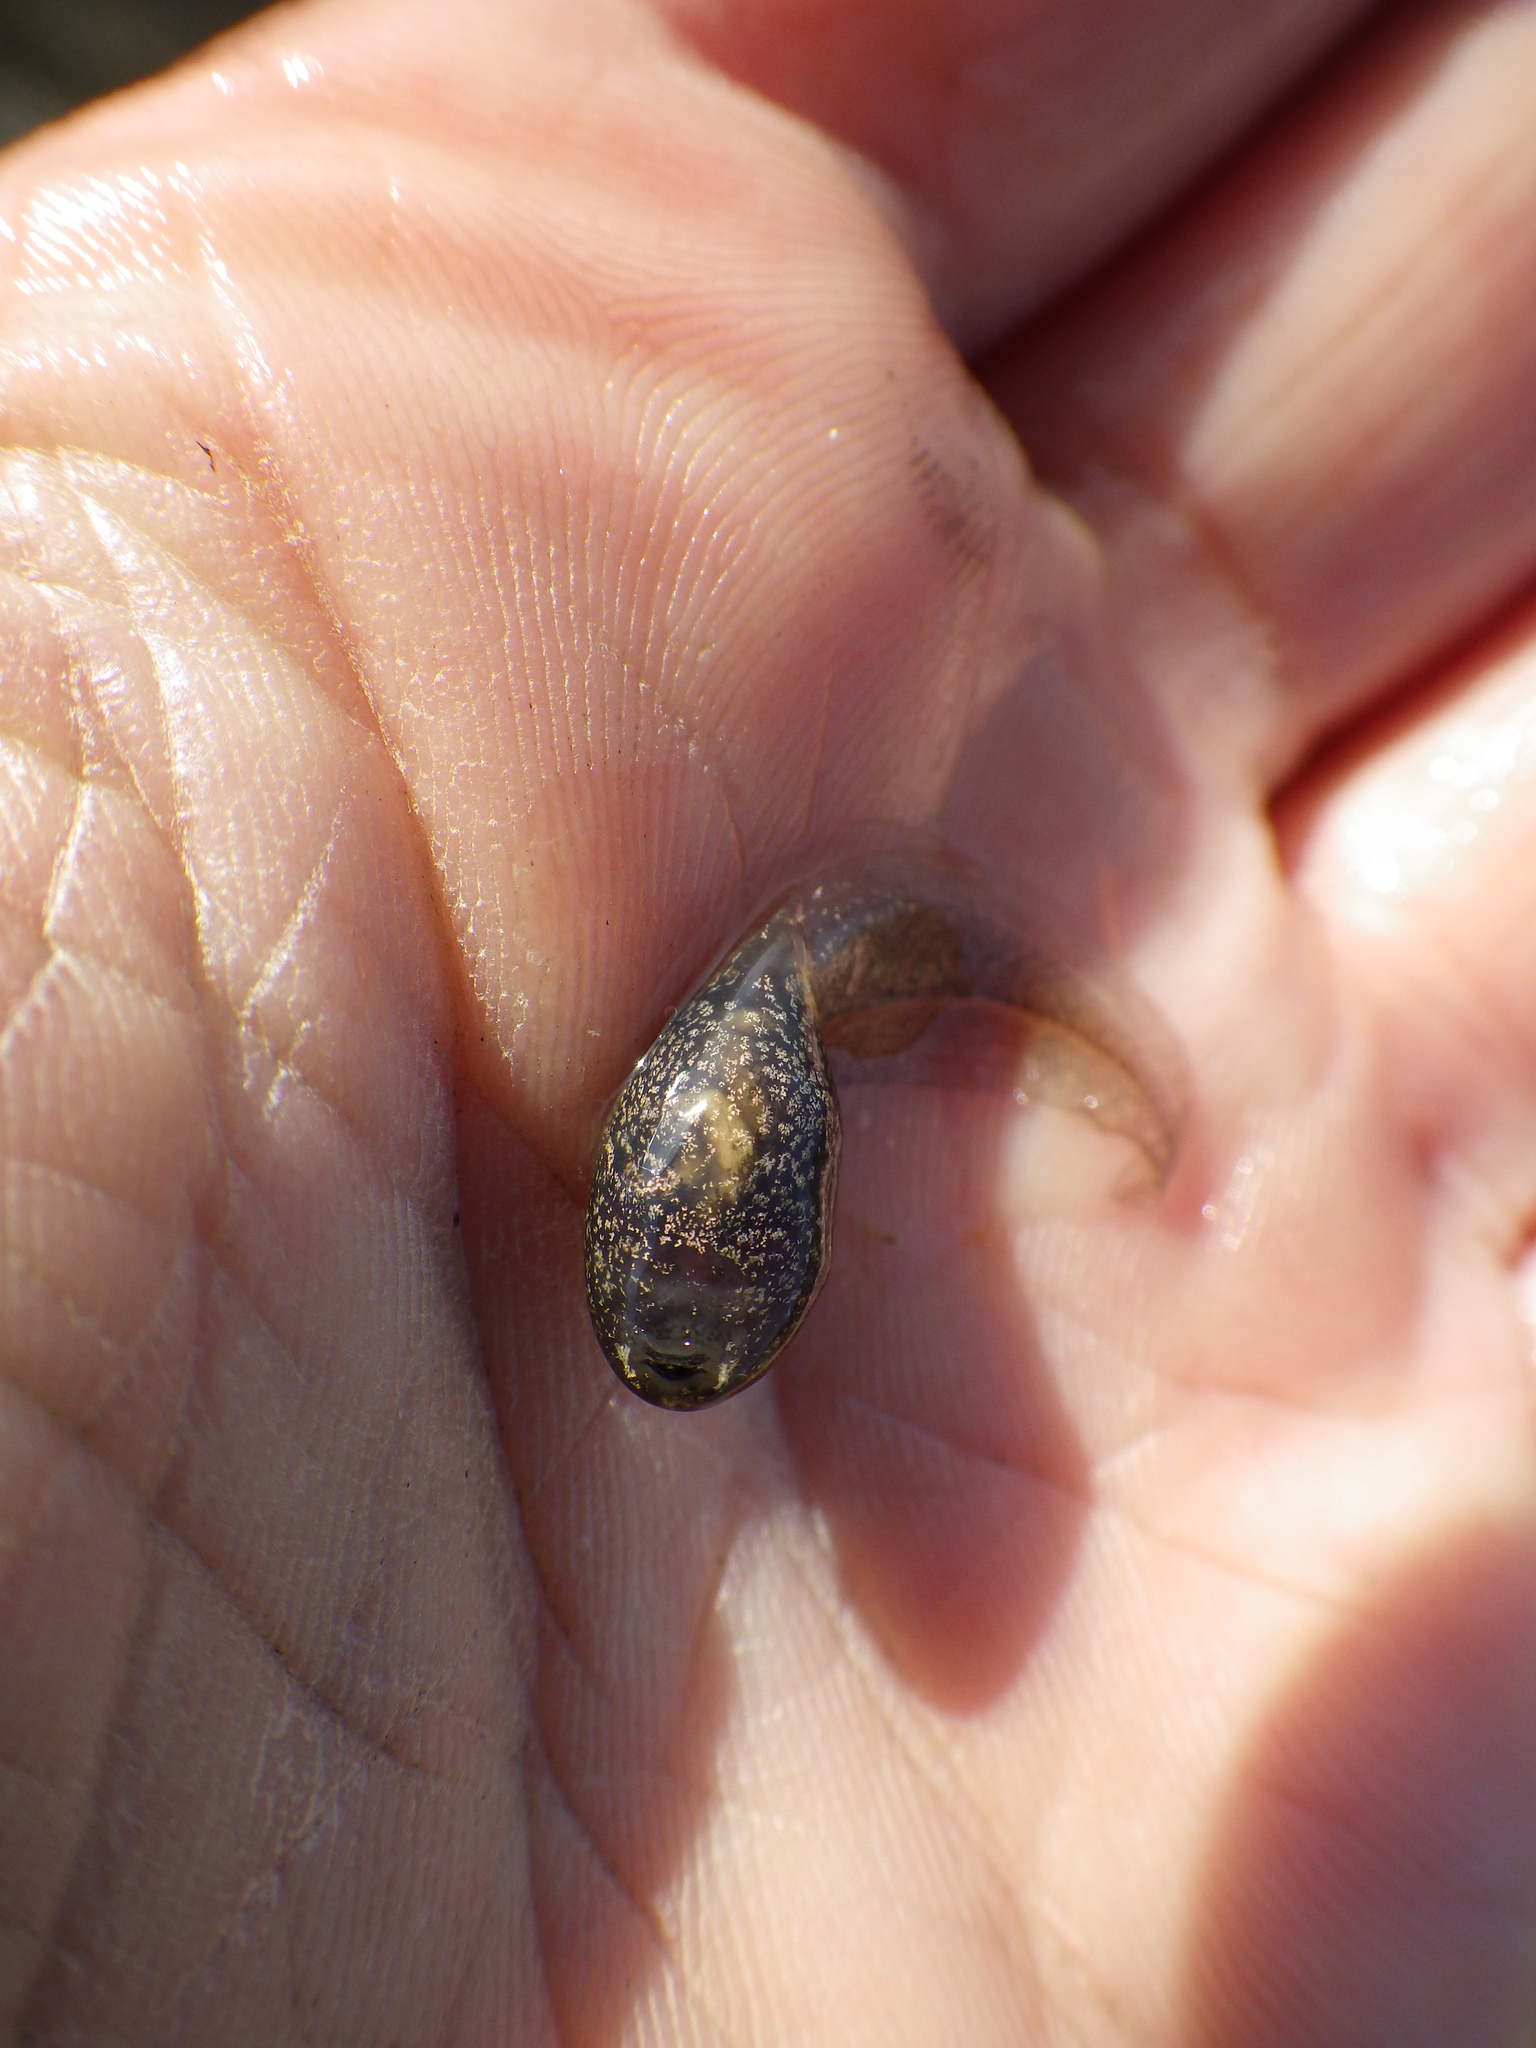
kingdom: Animalia
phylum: Chordata
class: Amphibia
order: Anura
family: Ranidae
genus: Rana
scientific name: Rana temporaria
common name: Common frog
